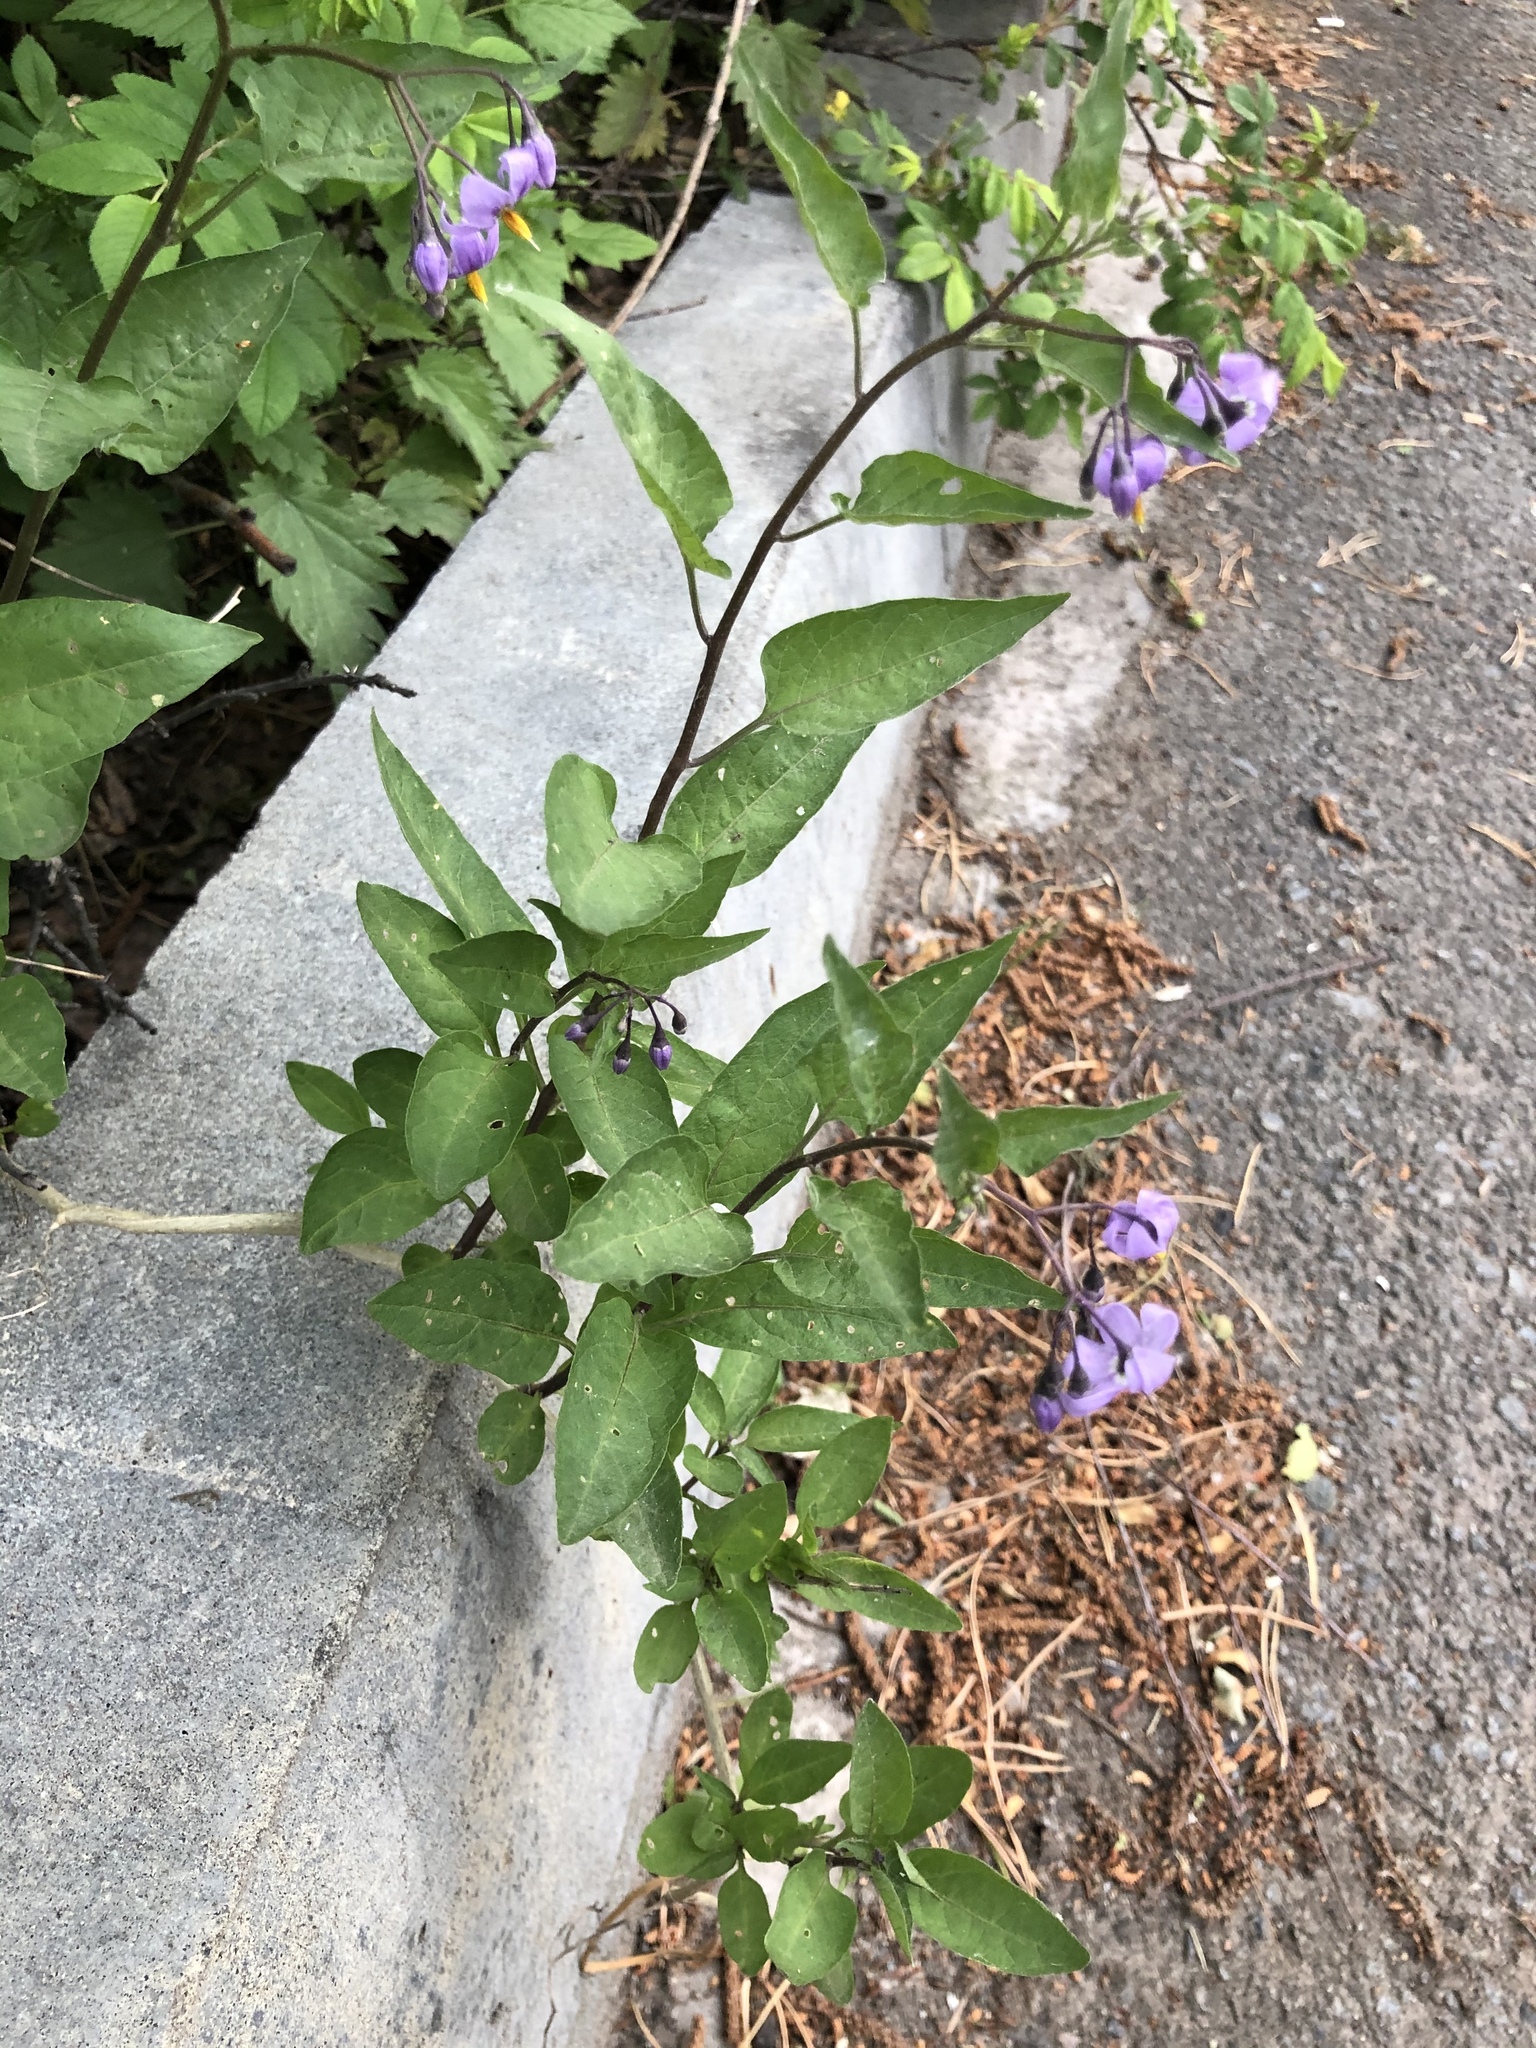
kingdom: Plantae
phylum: Tracheophyta
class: Magnoliopsida
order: Solanales
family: Solanaceae
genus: Solanum
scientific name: Solanum dulcamara
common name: Climbing nightshade
